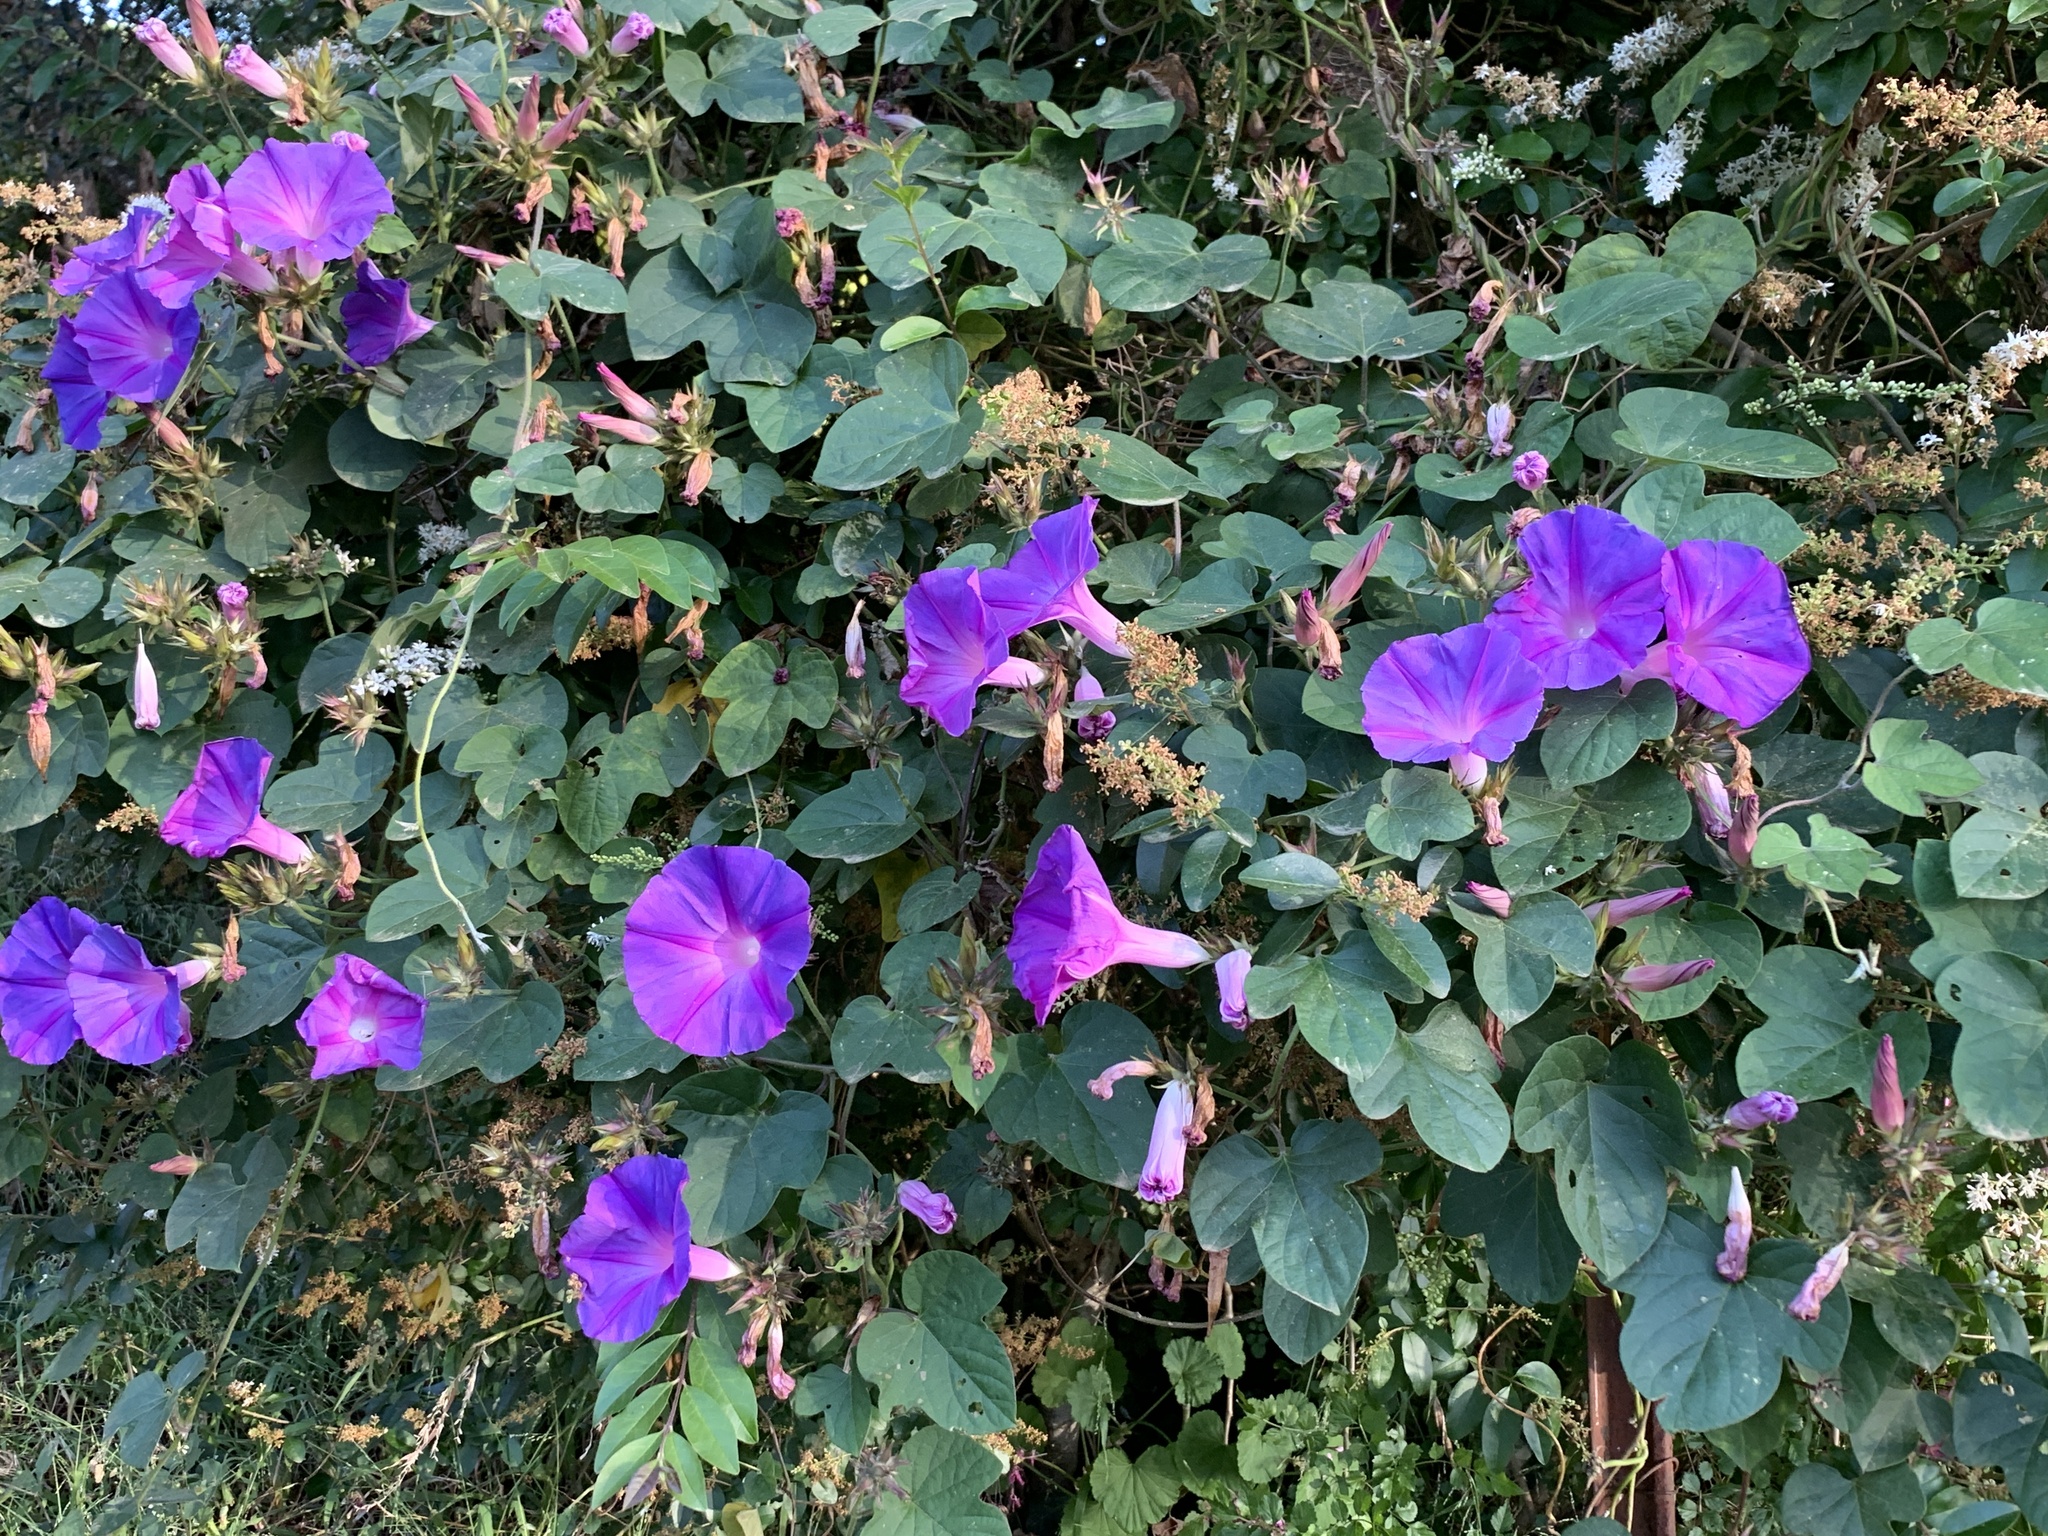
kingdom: Plantae
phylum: Tracheophyta
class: Magnoliopsida
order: Solanales
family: Convolvulaceae
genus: Ipomoea
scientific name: Ipomoea indica
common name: Blue dawnflower
